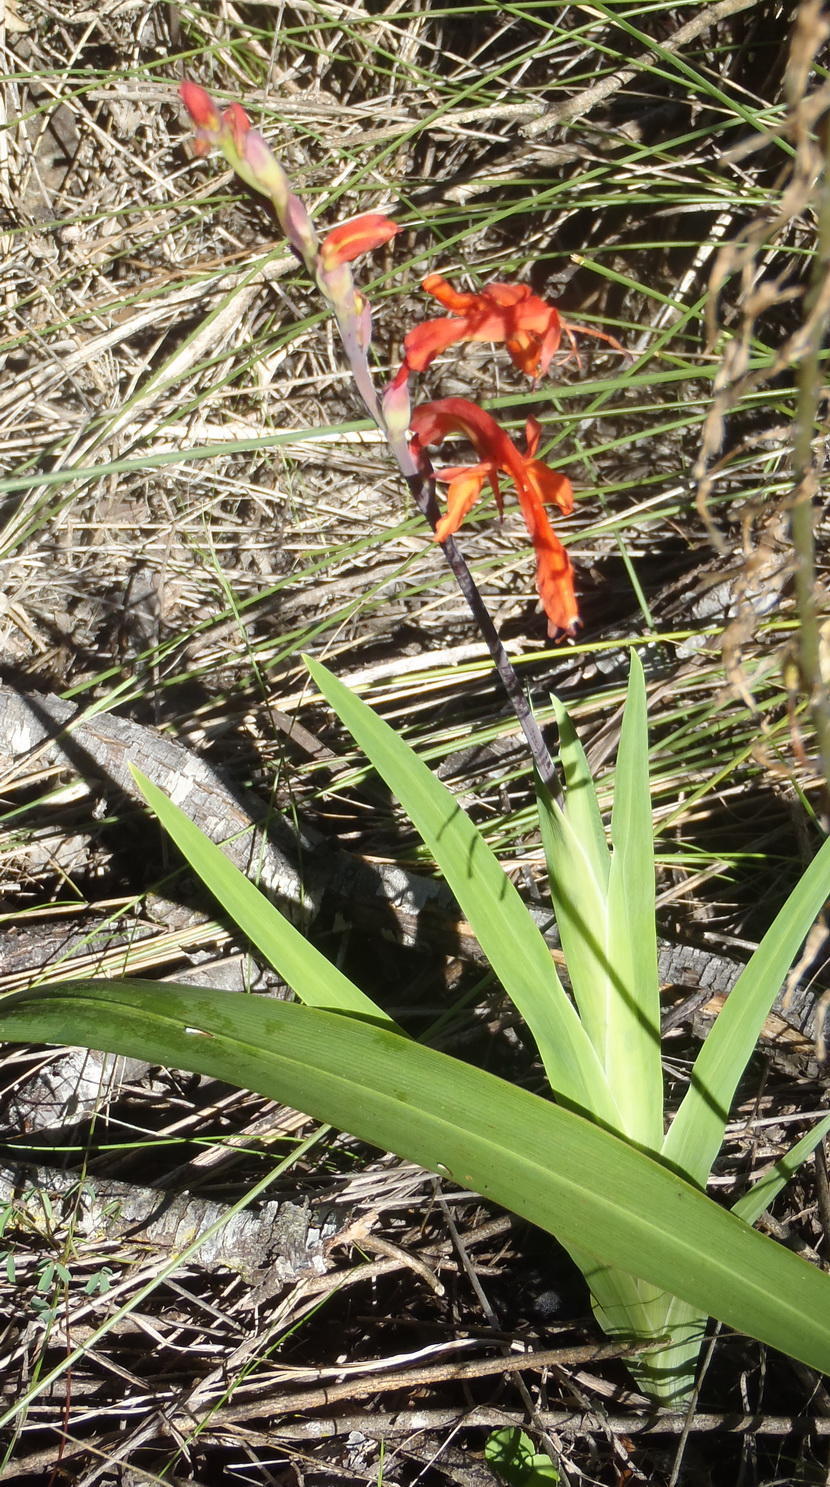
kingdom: Plantae
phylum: Tracheophyta
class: Liliopsida
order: Asparagales
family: Iridaceae
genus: Chasmanthe
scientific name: Chasmanthe aethiopica
